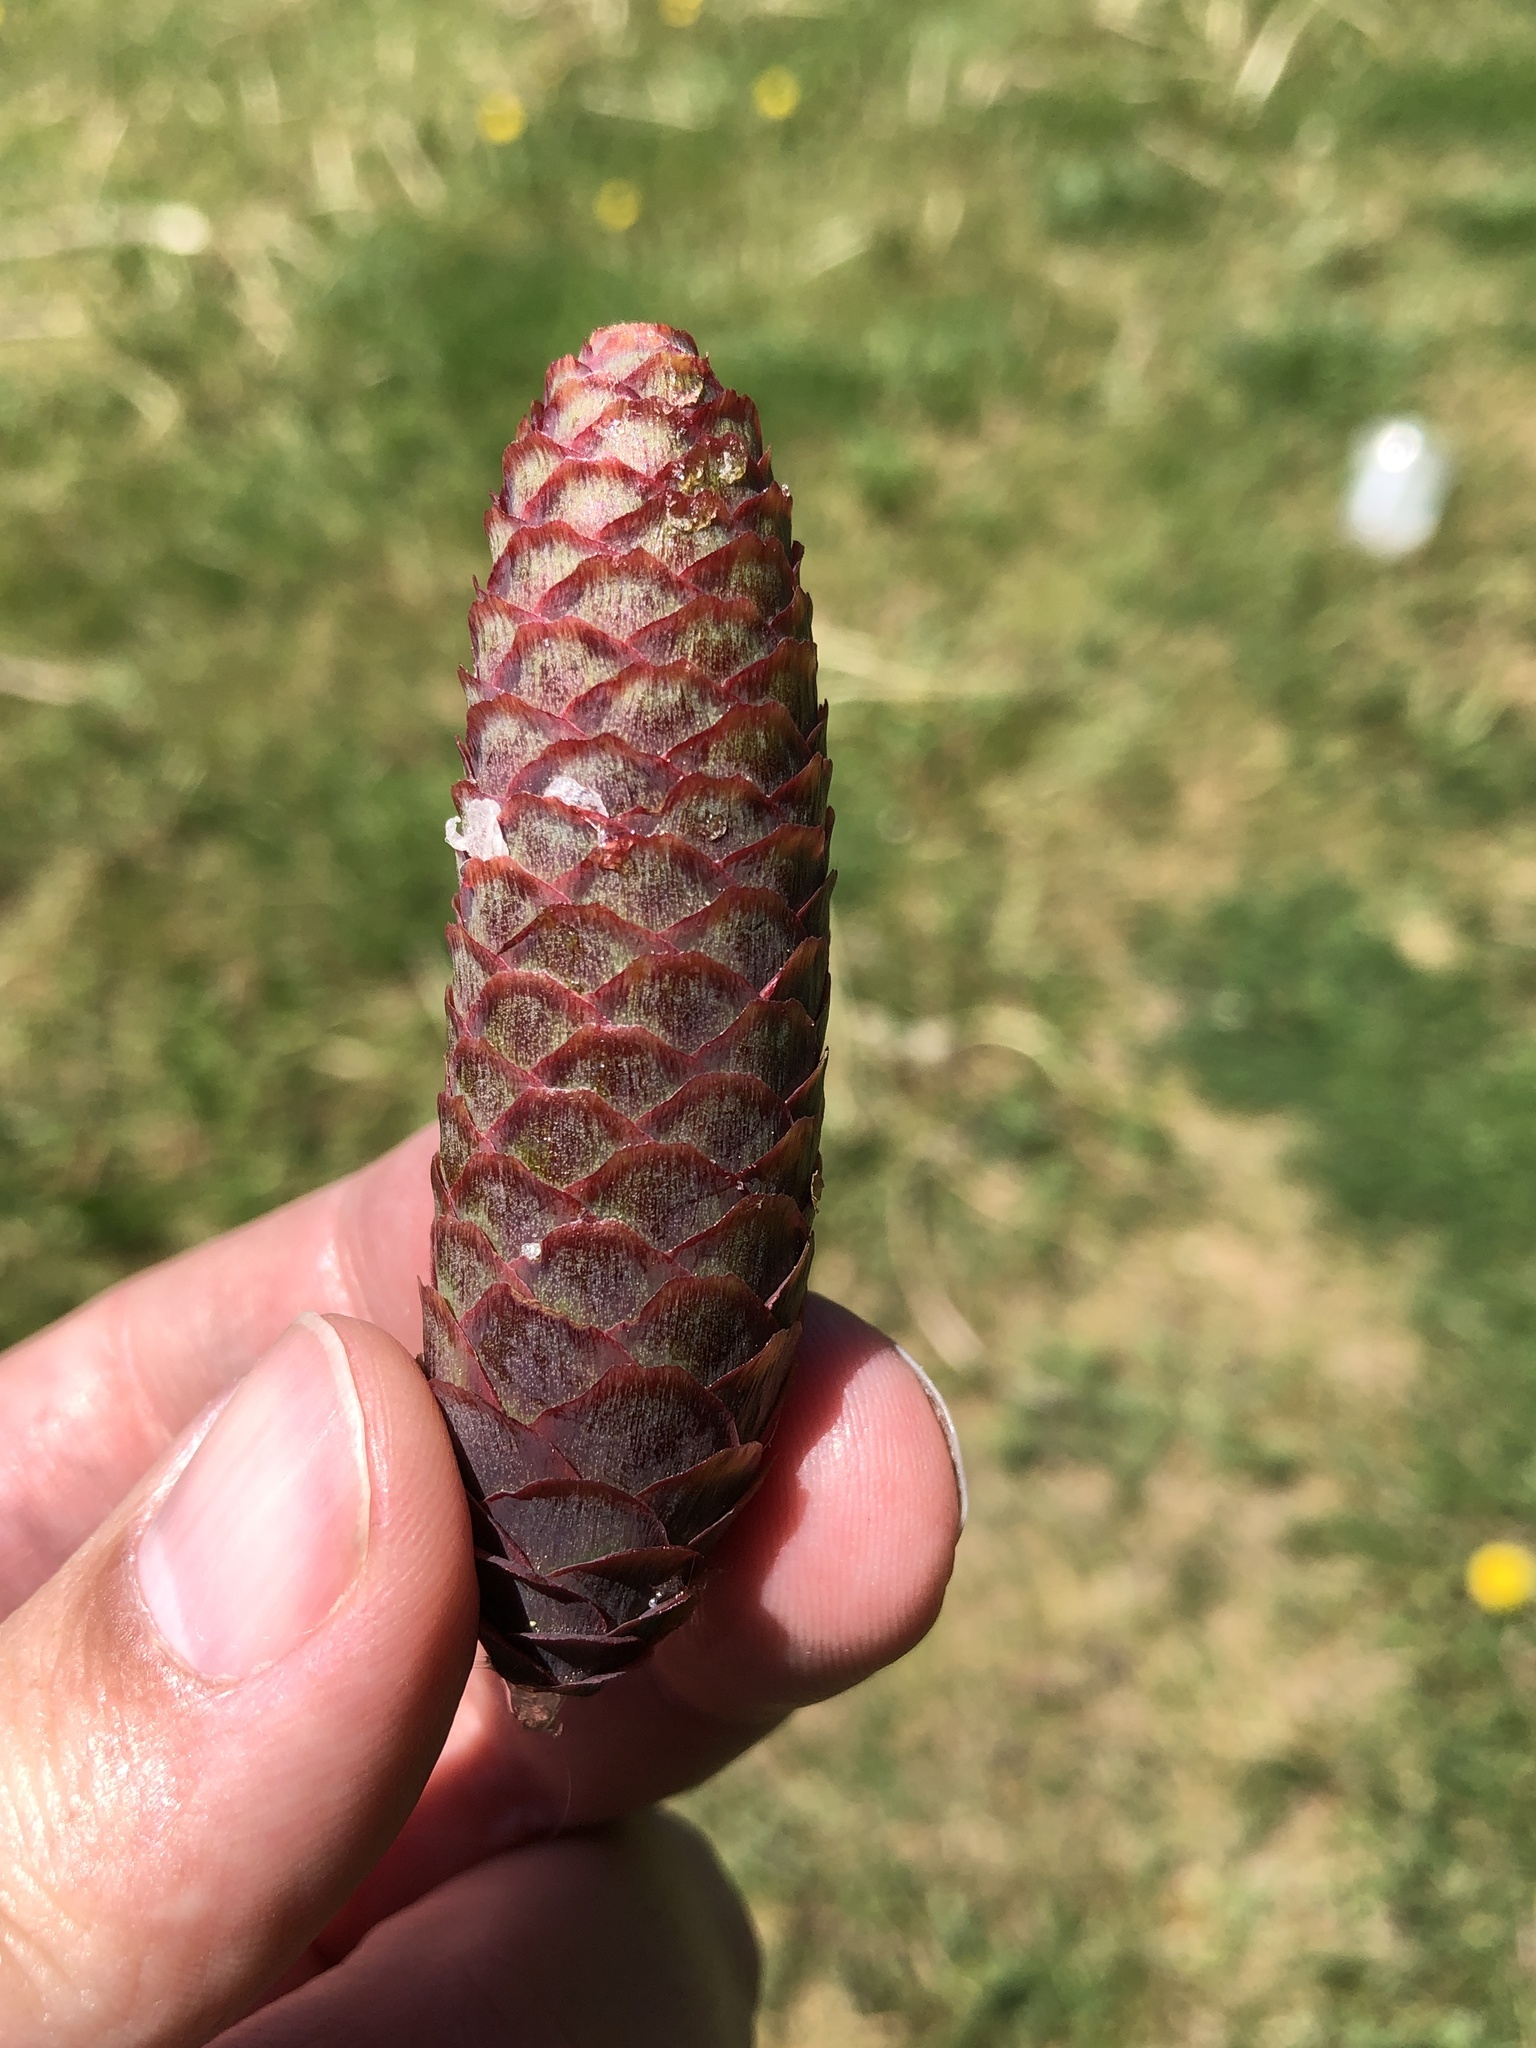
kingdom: Plantae
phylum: Tracheophyta
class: Pinopsida
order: Pinales
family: Pinaceae
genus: Picea
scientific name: Picea abies
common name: Norway spruce
